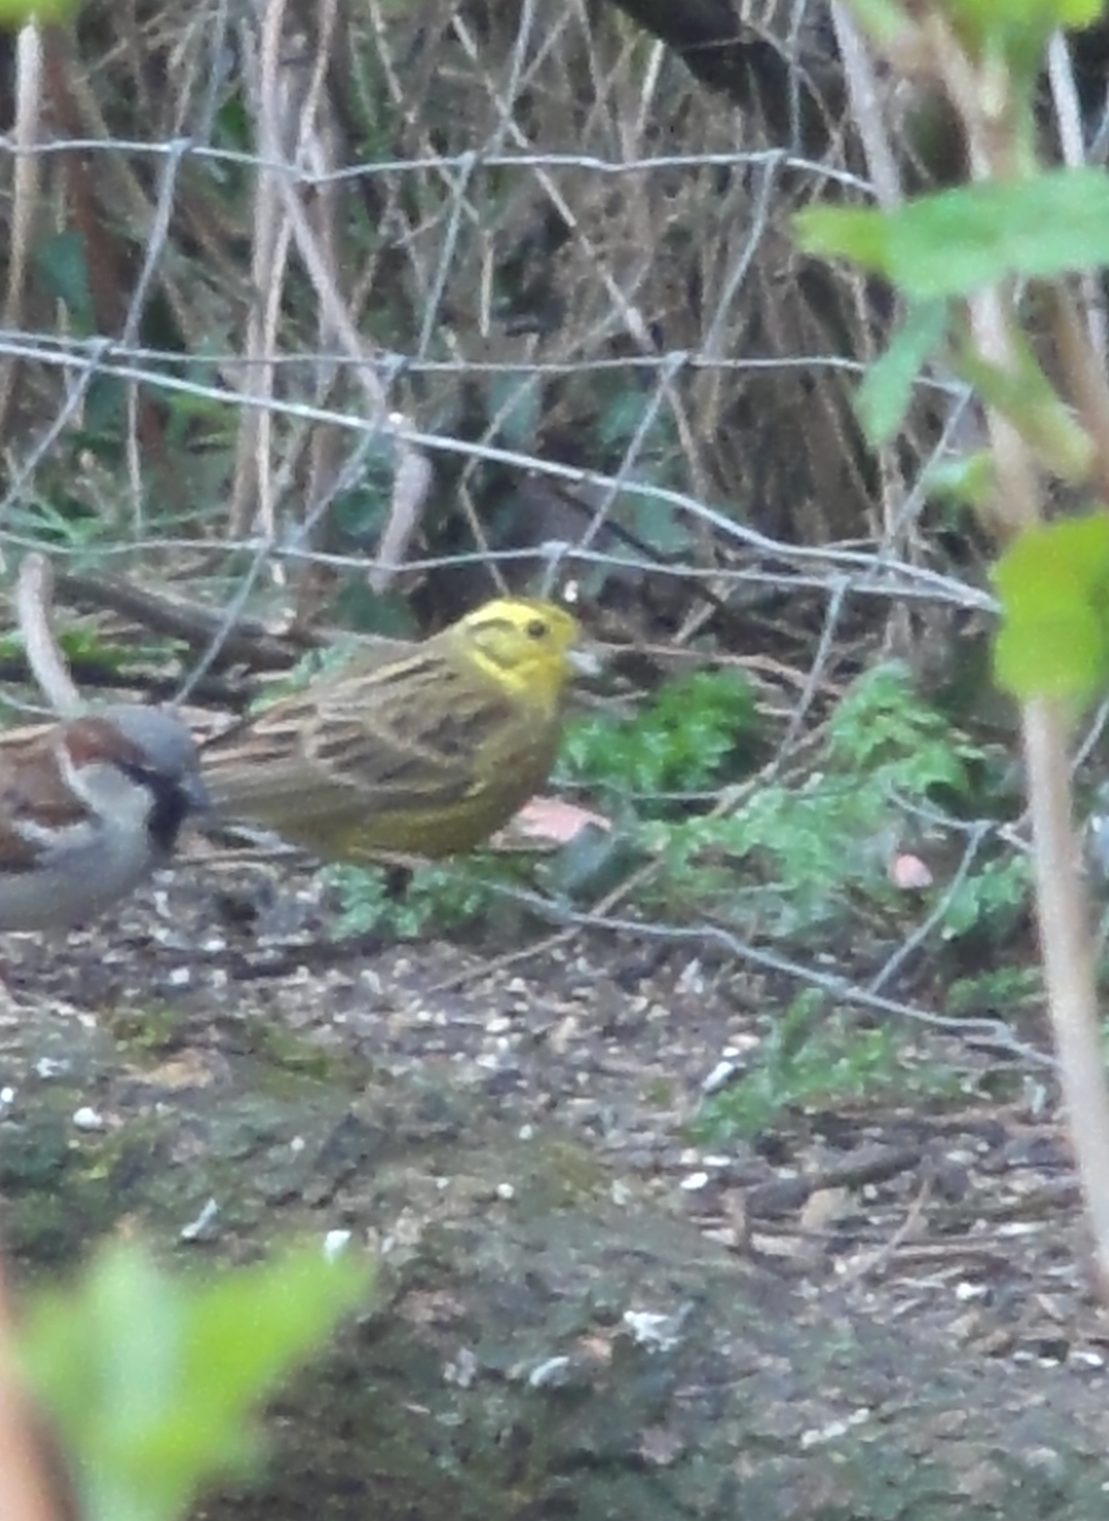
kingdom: Animalia
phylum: Chordata
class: Aves
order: Passeriformes
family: Emberizidae
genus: Emberiza
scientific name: Emberiza citrinella
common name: Yellowhammer
